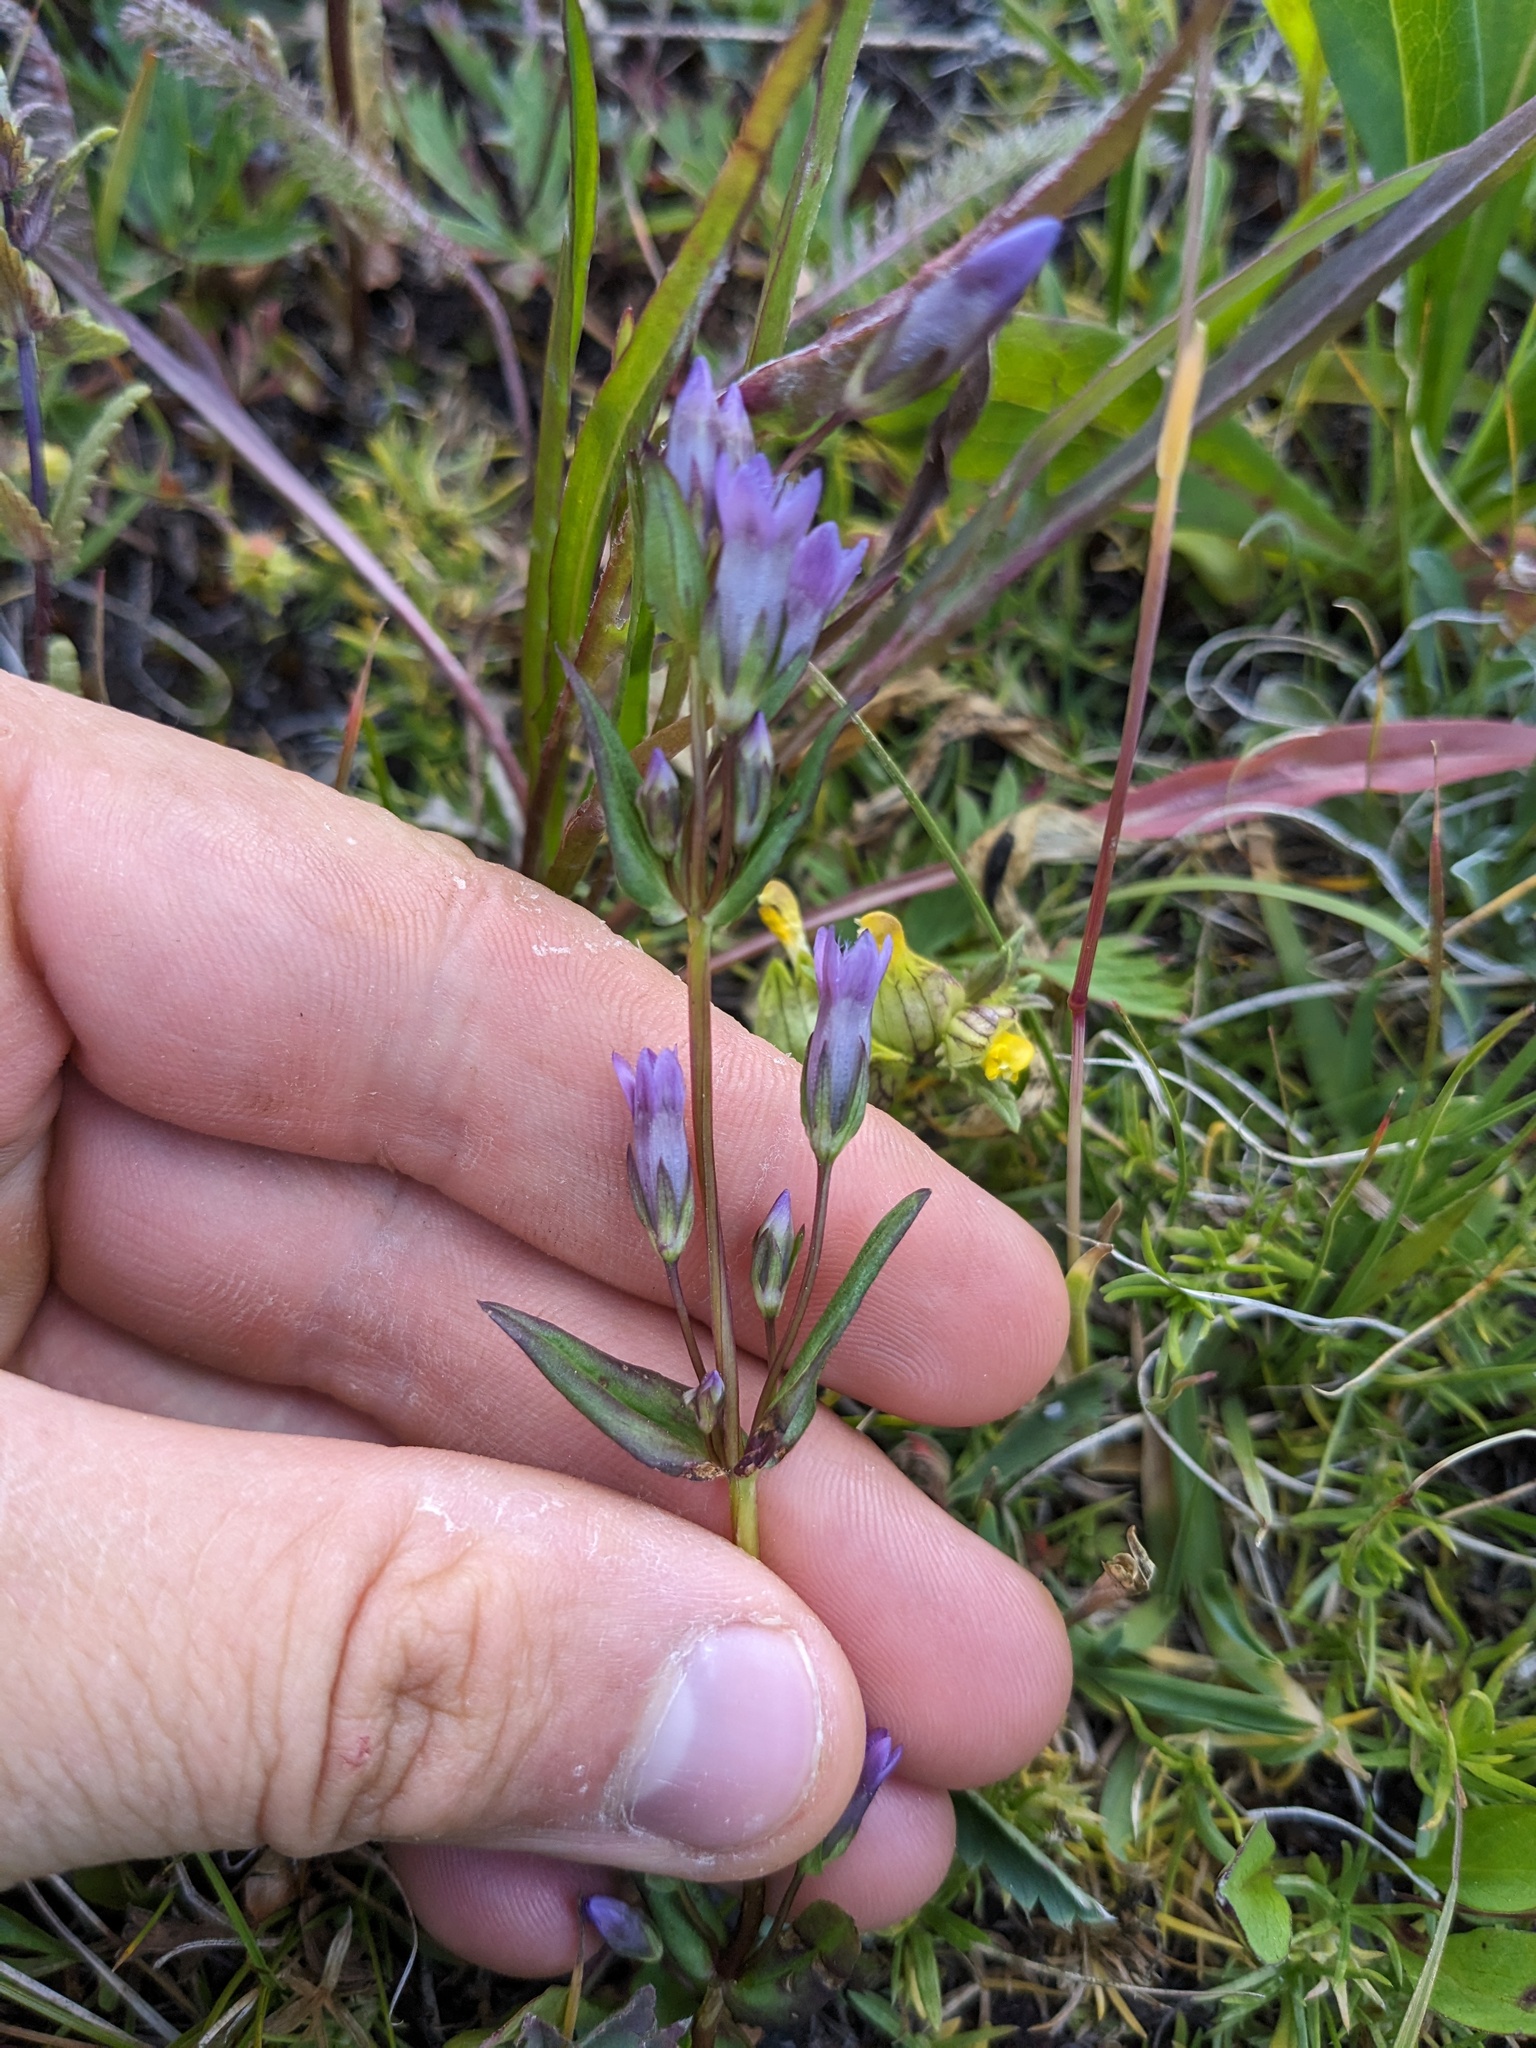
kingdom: Plantae
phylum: Tracheophyta
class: Magnoliopsida
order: Gentianales
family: Gentianaceae
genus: Gentianella
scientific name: Gentianella amarella
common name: Autumn gentian
